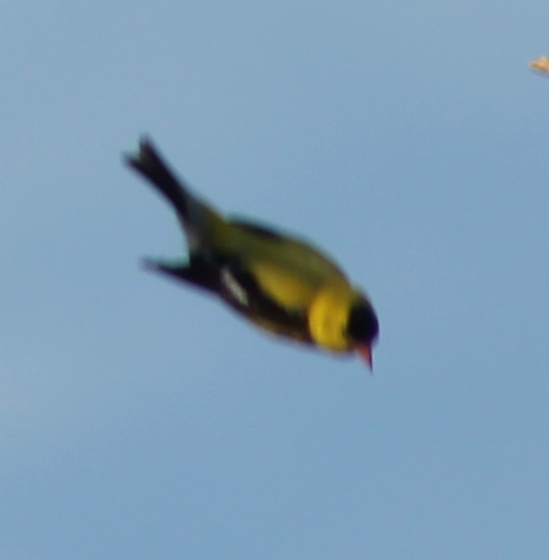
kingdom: Animalia
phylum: Chordata
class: Aves
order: Passeriformes
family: Fringillidae
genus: Spinus
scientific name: Spinus tristis
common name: American goldfinch
